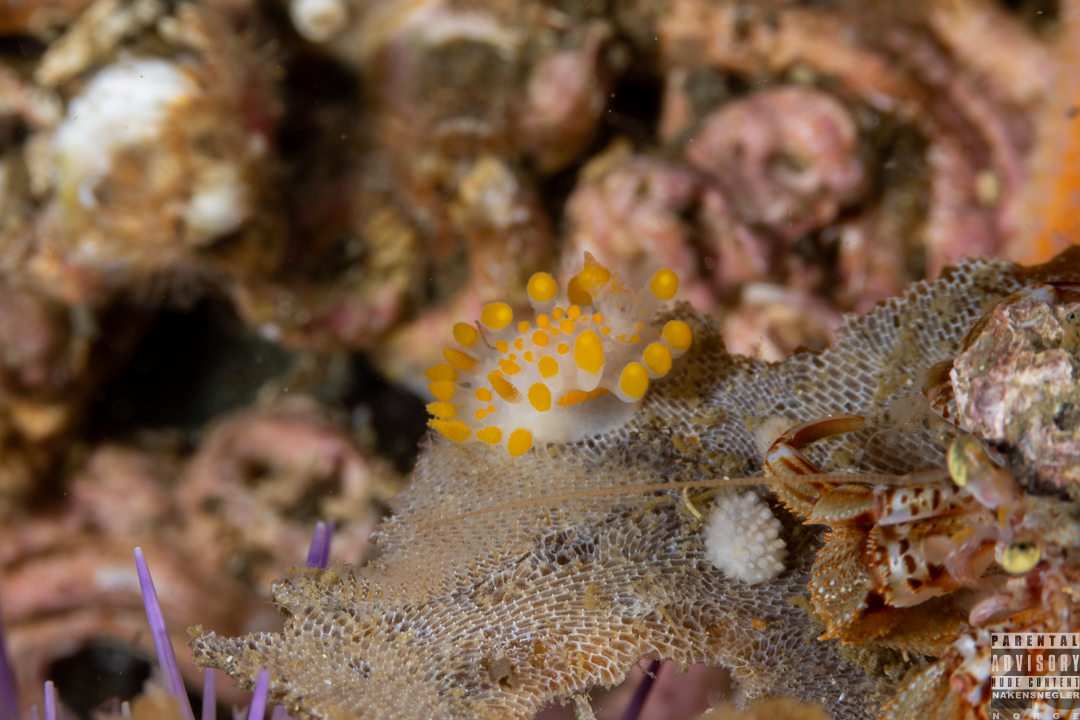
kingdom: Animalia
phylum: Mollusca
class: Gastropoda
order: Nudibranchia
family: Polyceridae
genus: Limacia
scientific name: Limacia clavigera
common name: Orange-clubbed sea slug
